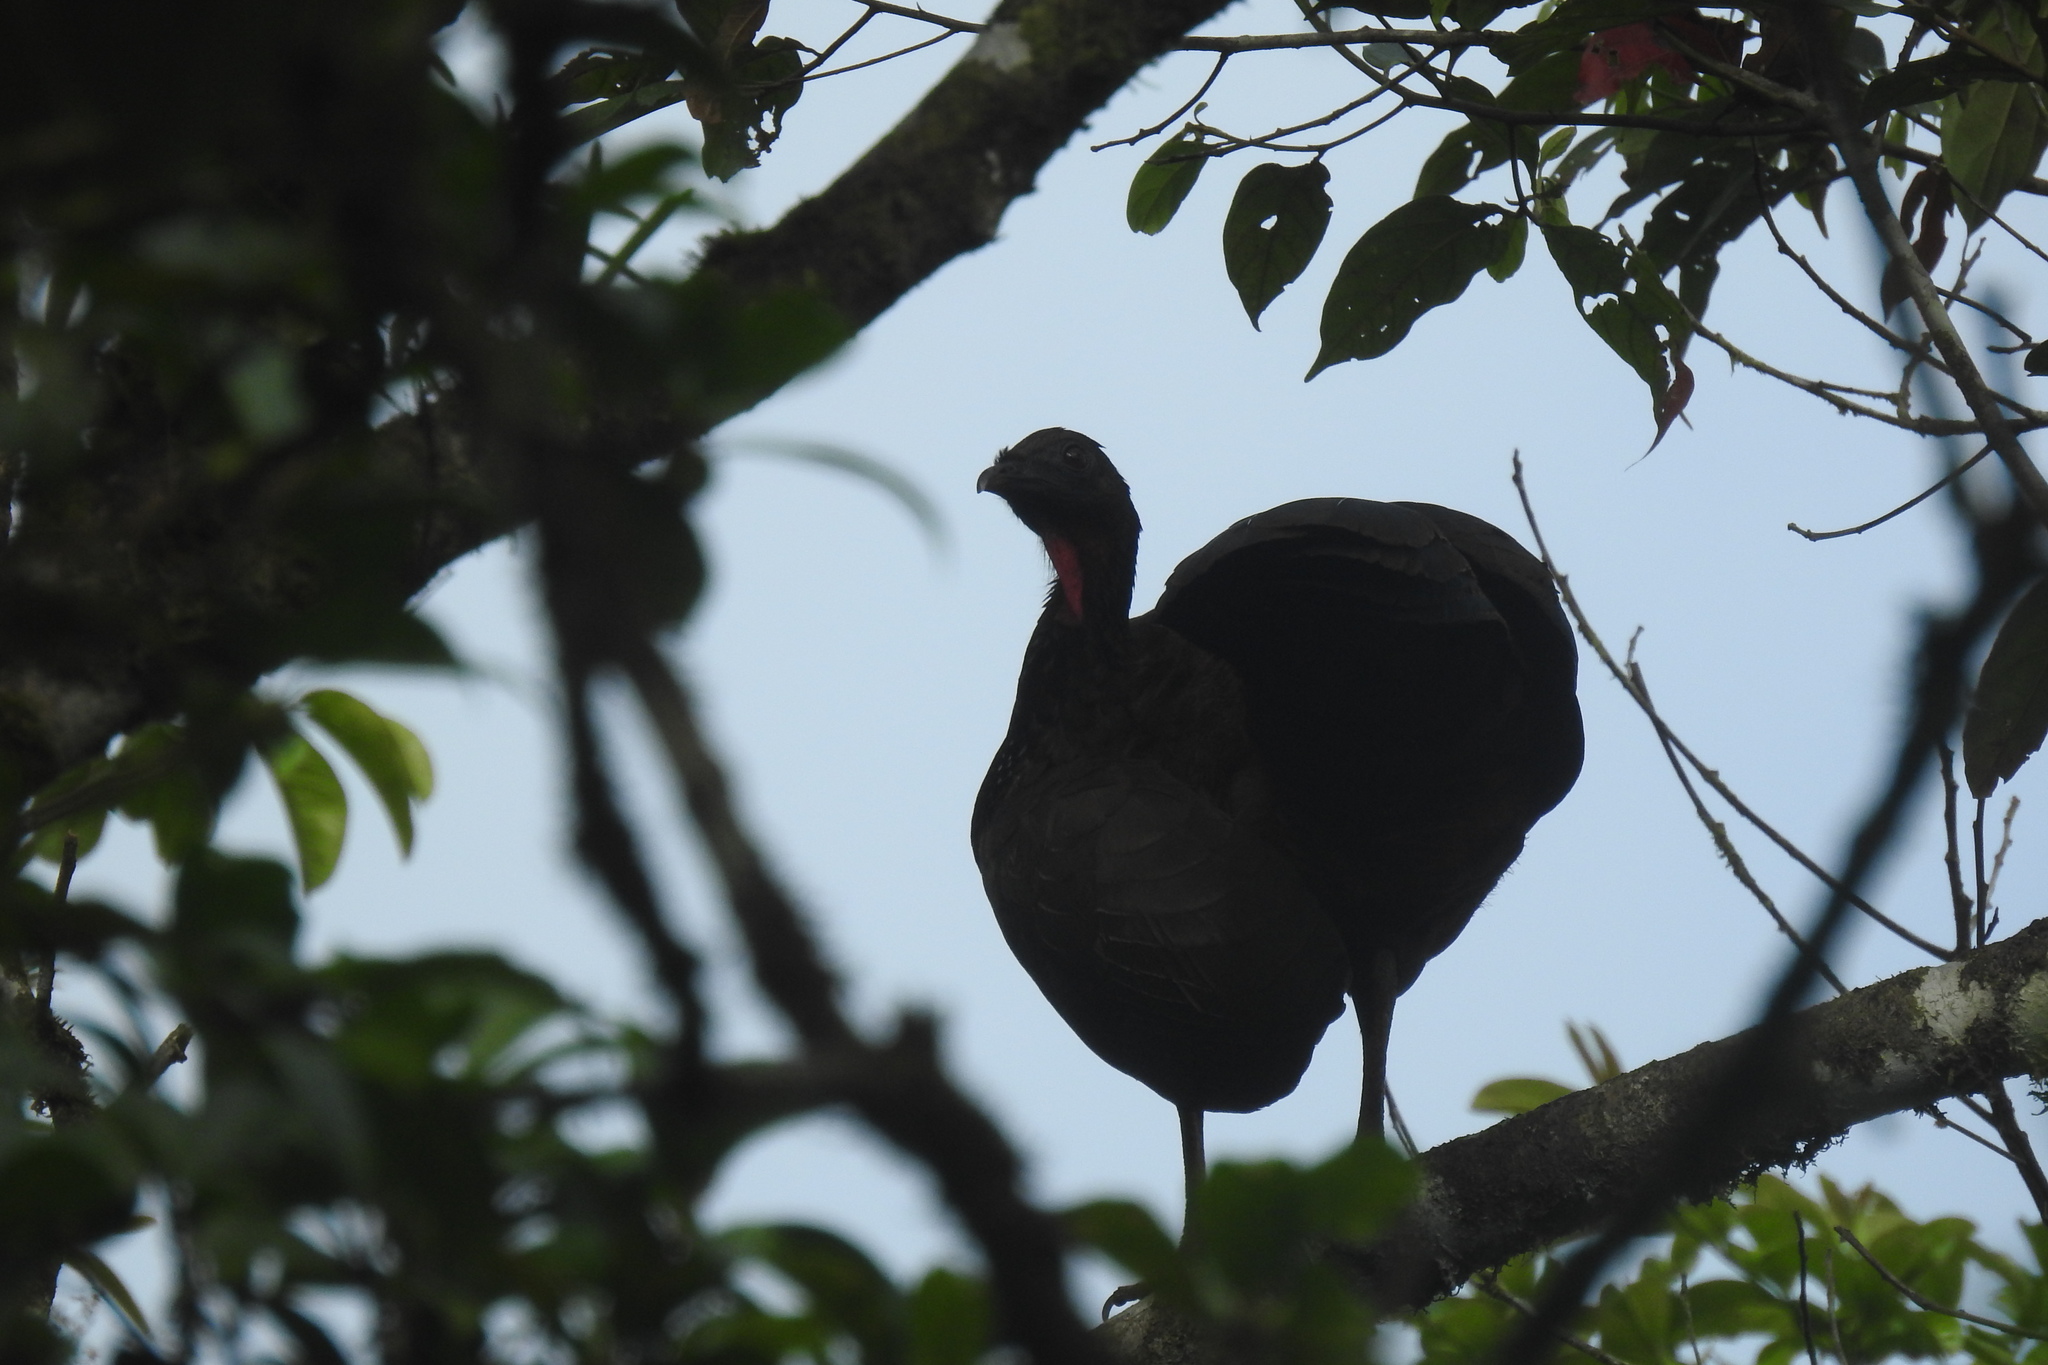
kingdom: Animalia
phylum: Chordata
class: Aves
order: Galliformes
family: Cracidae
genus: Penelope
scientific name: Penelope purpurascens
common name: Crested guan
